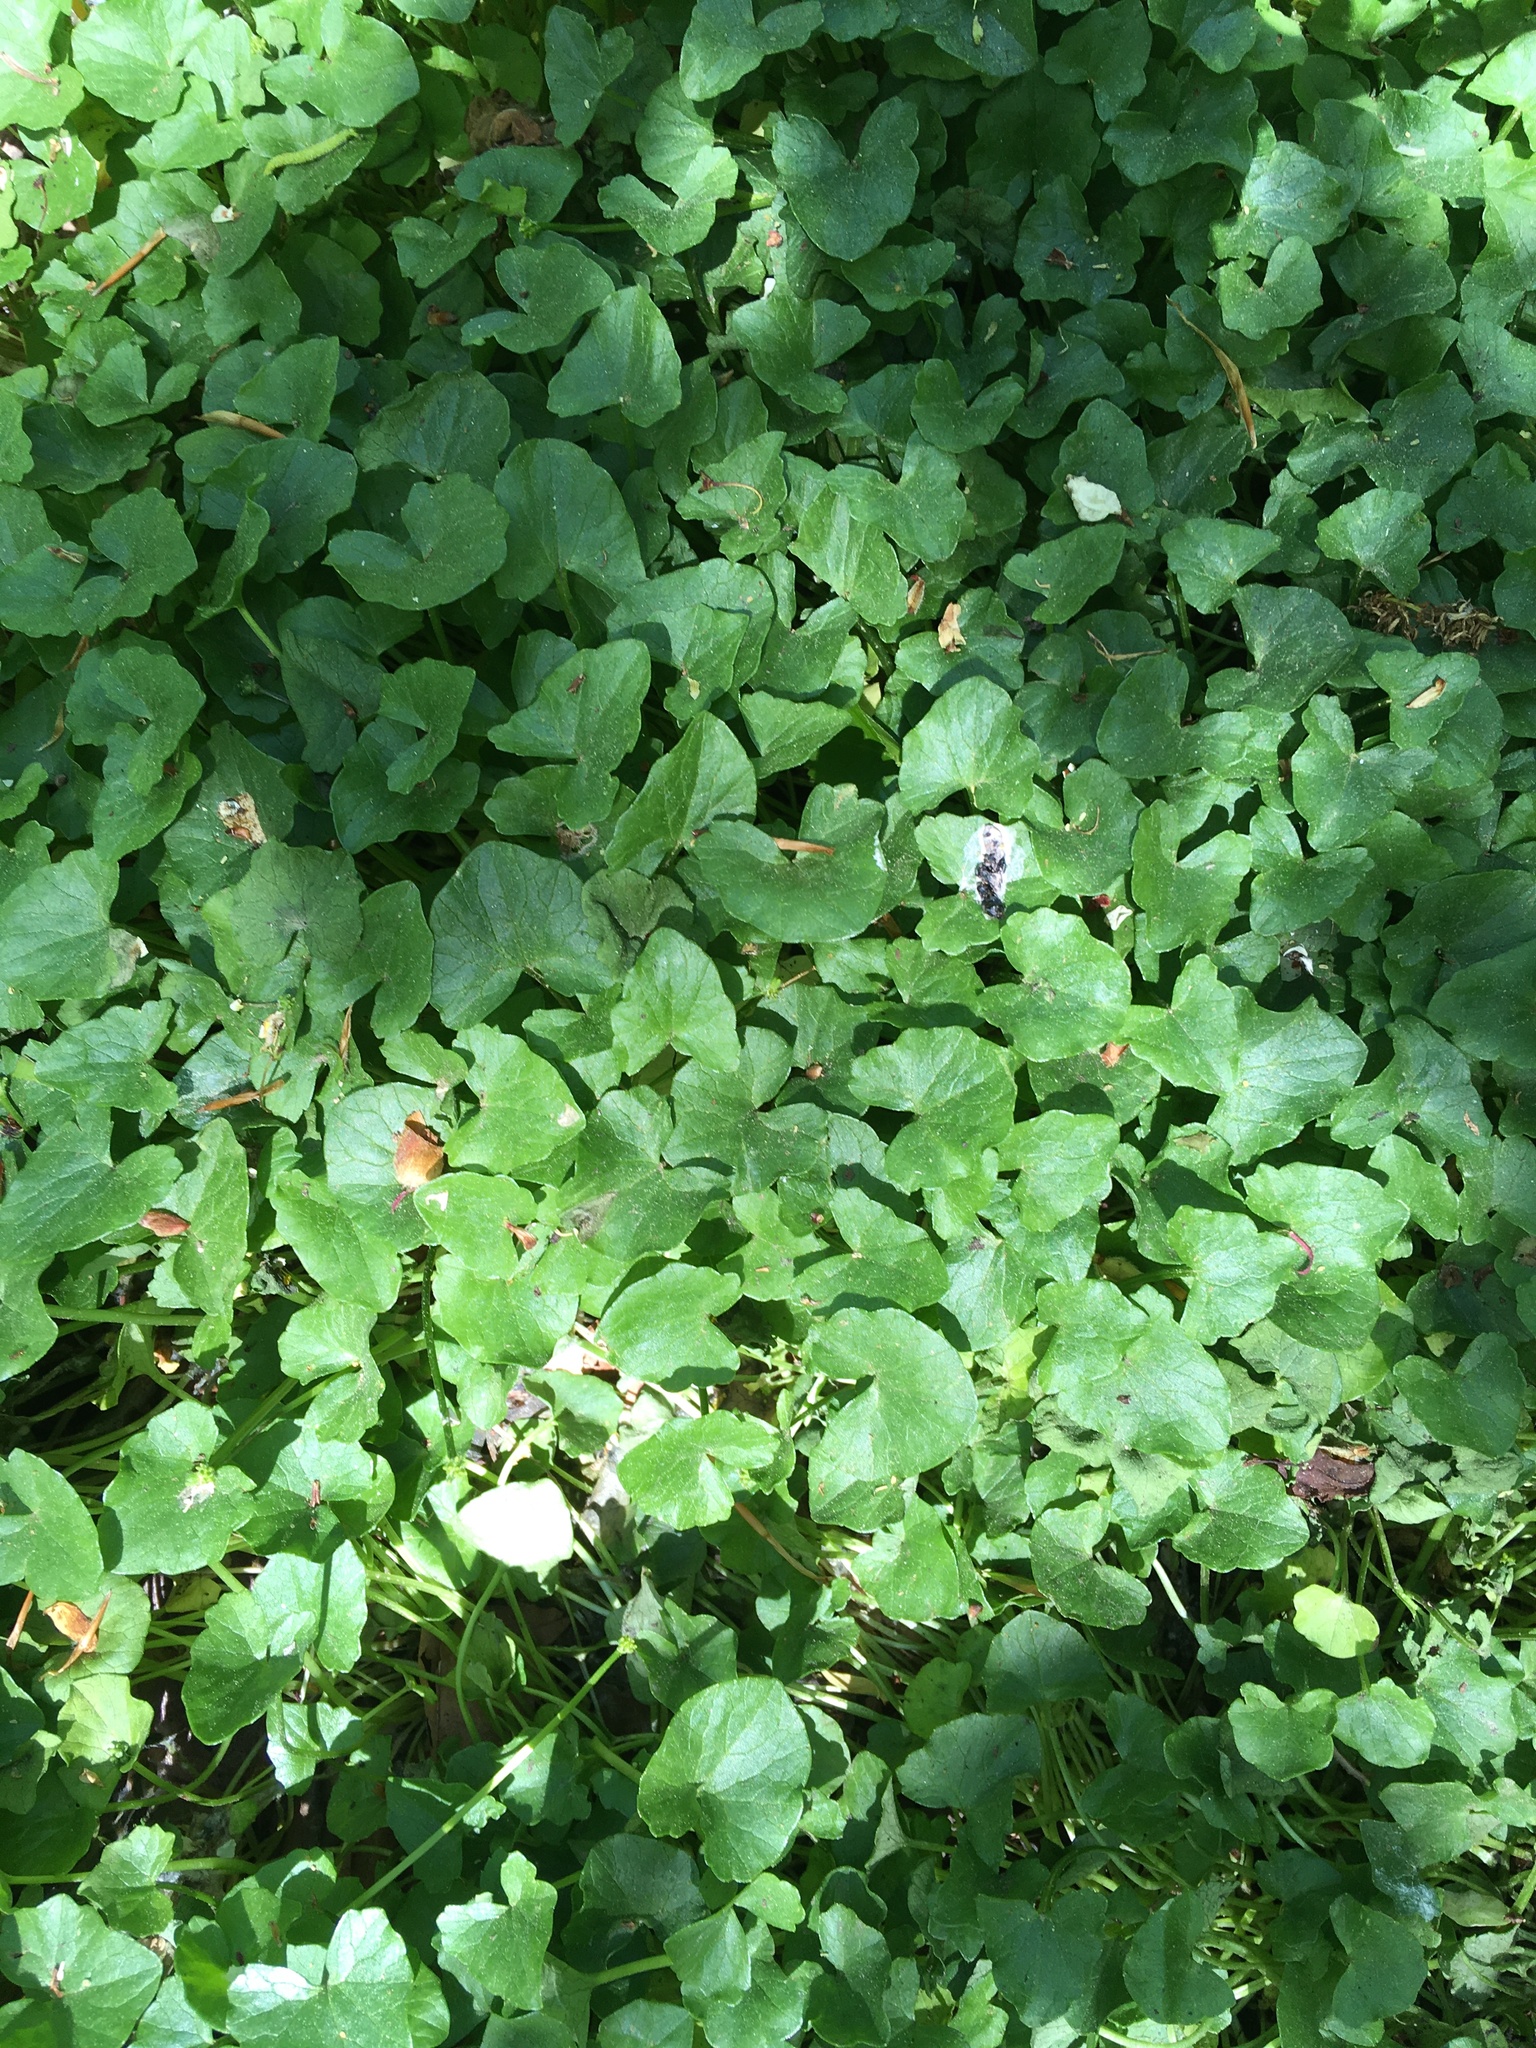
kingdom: Plantae
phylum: Tracheophyta
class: Magnoliopsida
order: Ranunculales
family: Ranunculaceae
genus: Ficaria
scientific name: Ficaria verna
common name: Lesser celandine
